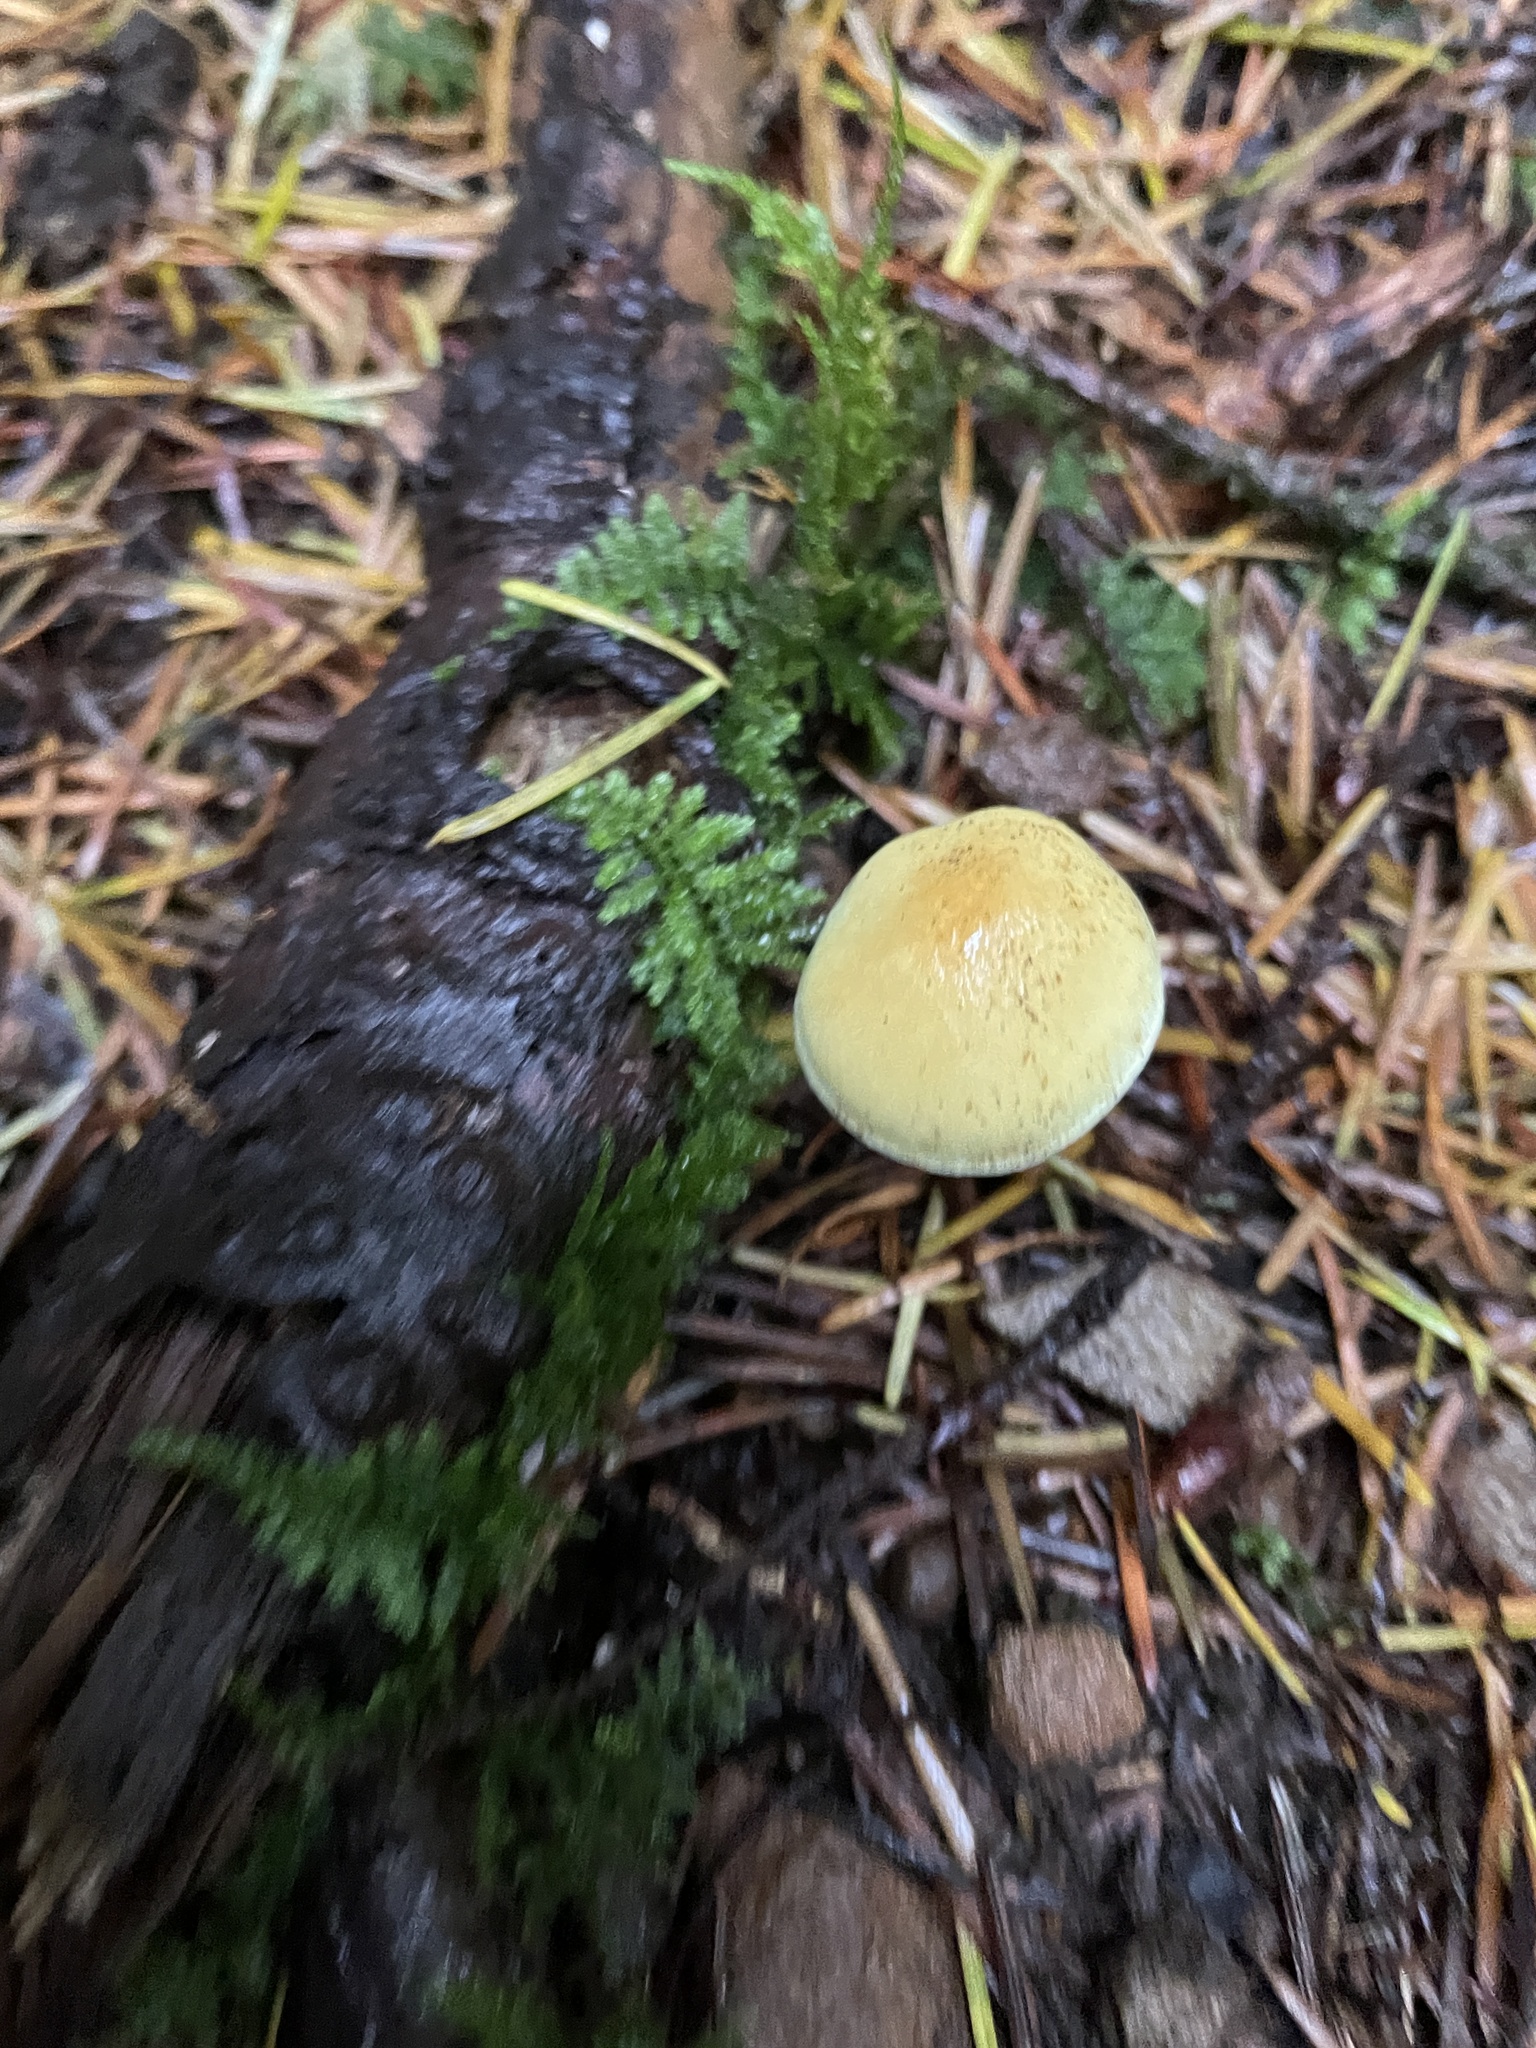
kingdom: Fungi
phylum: Basidiomycota
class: Agaricomycetes
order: Agaricales
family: Strophariaceae
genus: Hypholoma
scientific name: Hypholoma fasciculare
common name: Sulphur tuft
